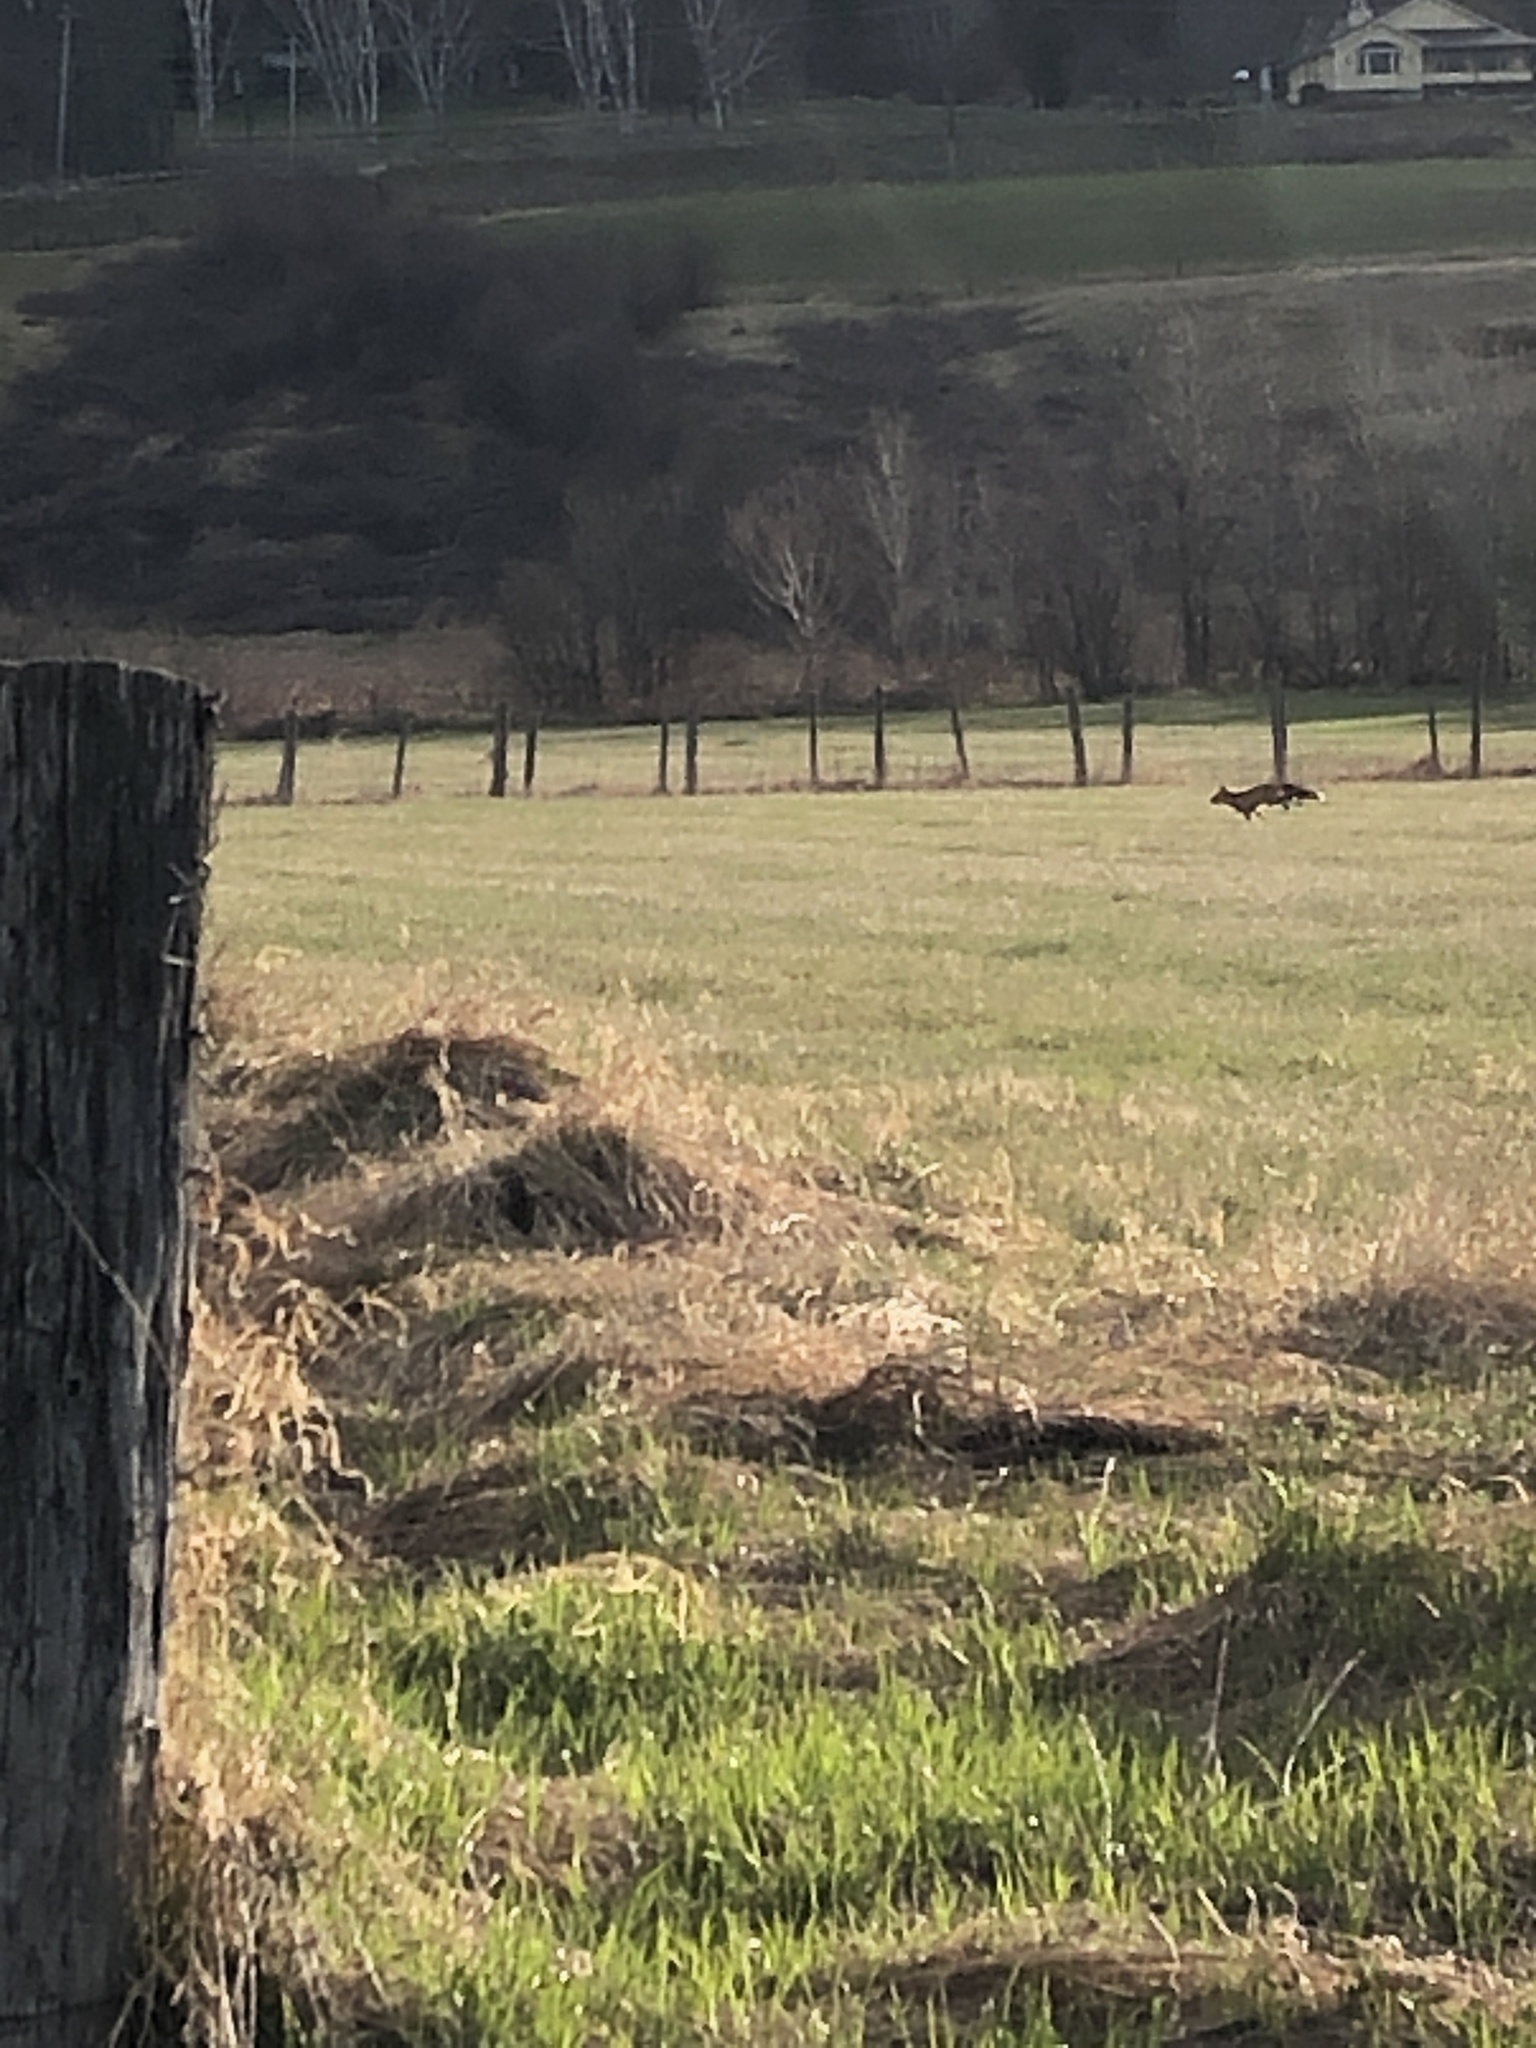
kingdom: Animalia
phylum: Chordata
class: Mammalia
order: Carnivora
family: Canidae
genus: Vulpes
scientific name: Vulpes vulpes
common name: Red fox
